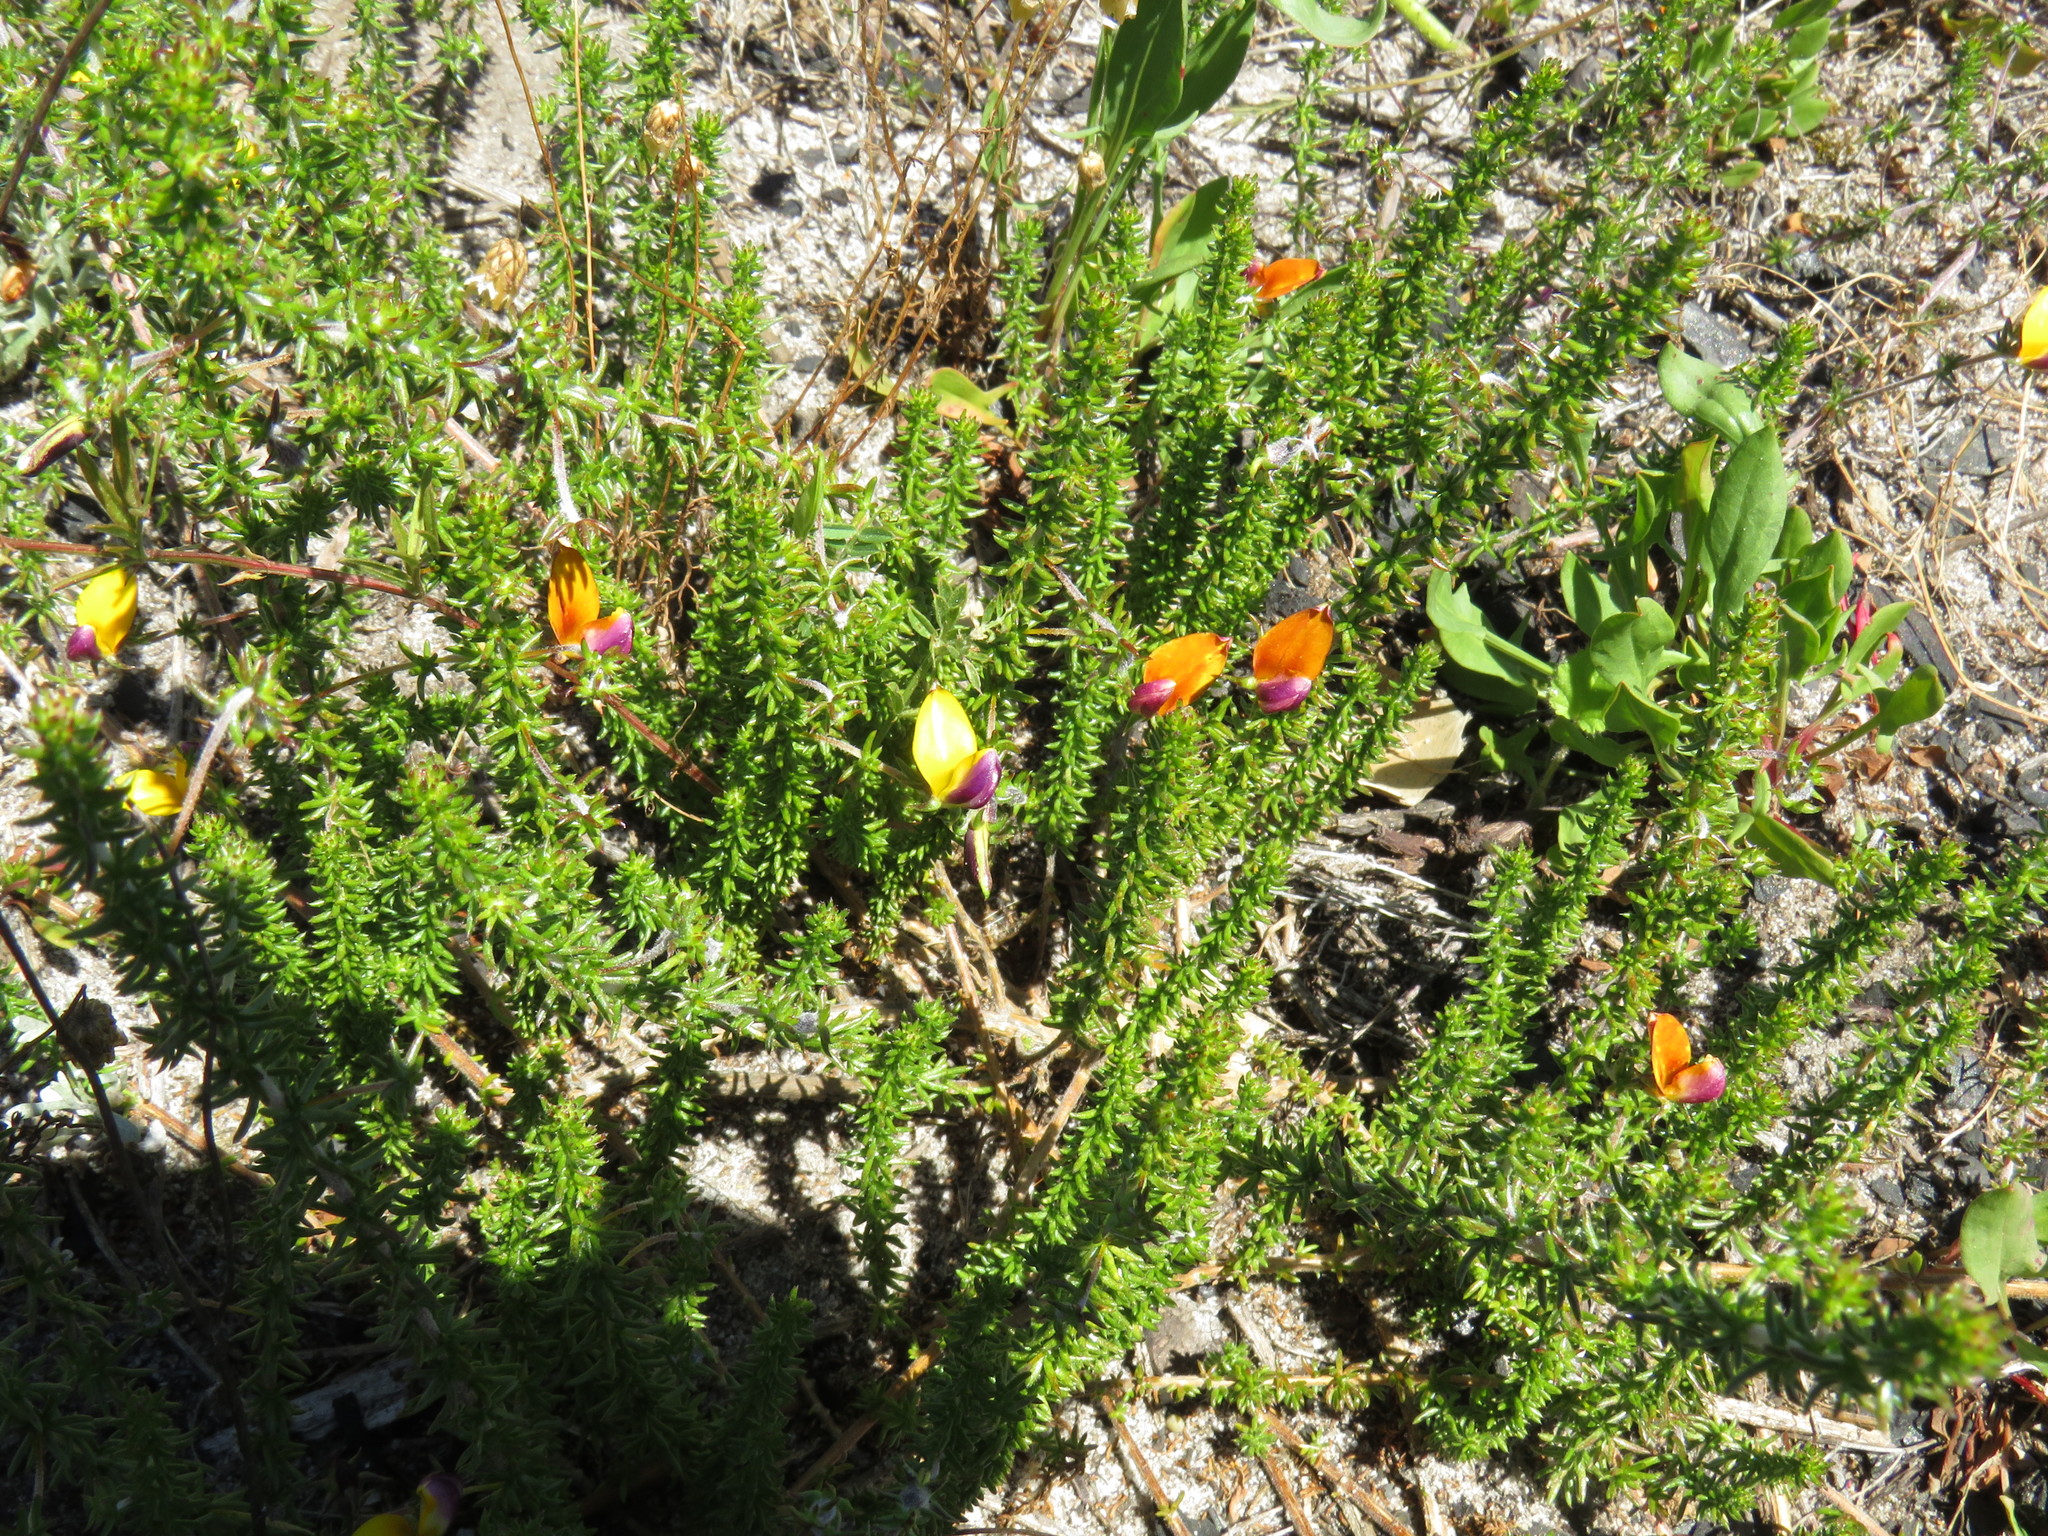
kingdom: Plantae
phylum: Tracheophyta
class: Magnoliopsida
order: Fabales
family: Fabaceae
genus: Aspalathus
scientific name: Aspalathus retroflexa
